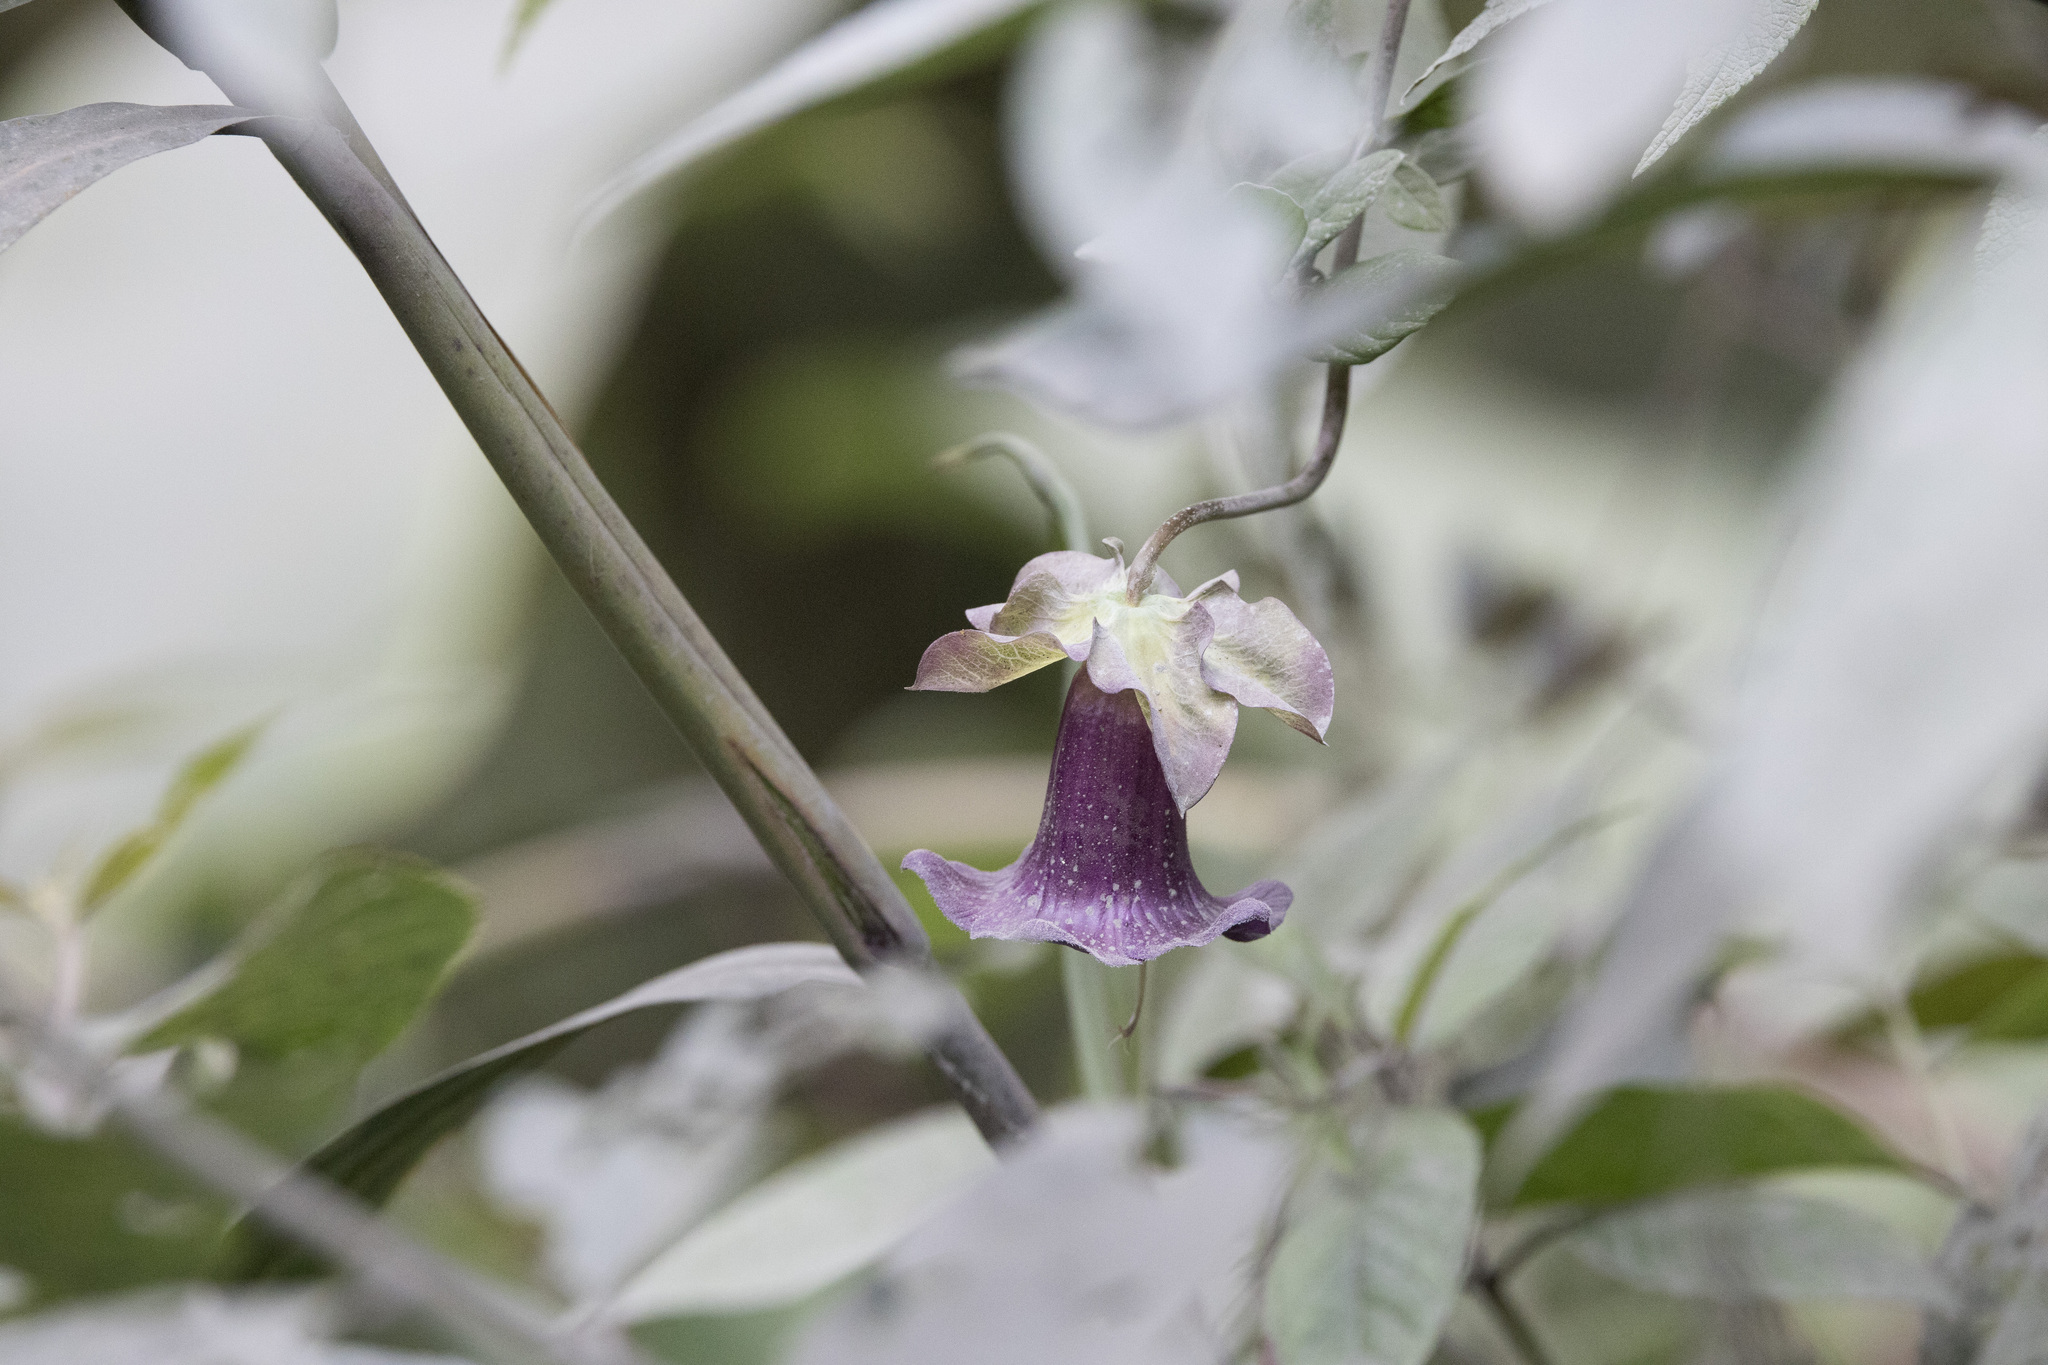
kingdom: Plantae
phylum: Tracheophyta
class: Magnoliopsida
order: Ericales
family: Polemoniaceae
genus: Cobaea
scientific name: Cobaea scandens
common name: Cup-and-saucer-vine
